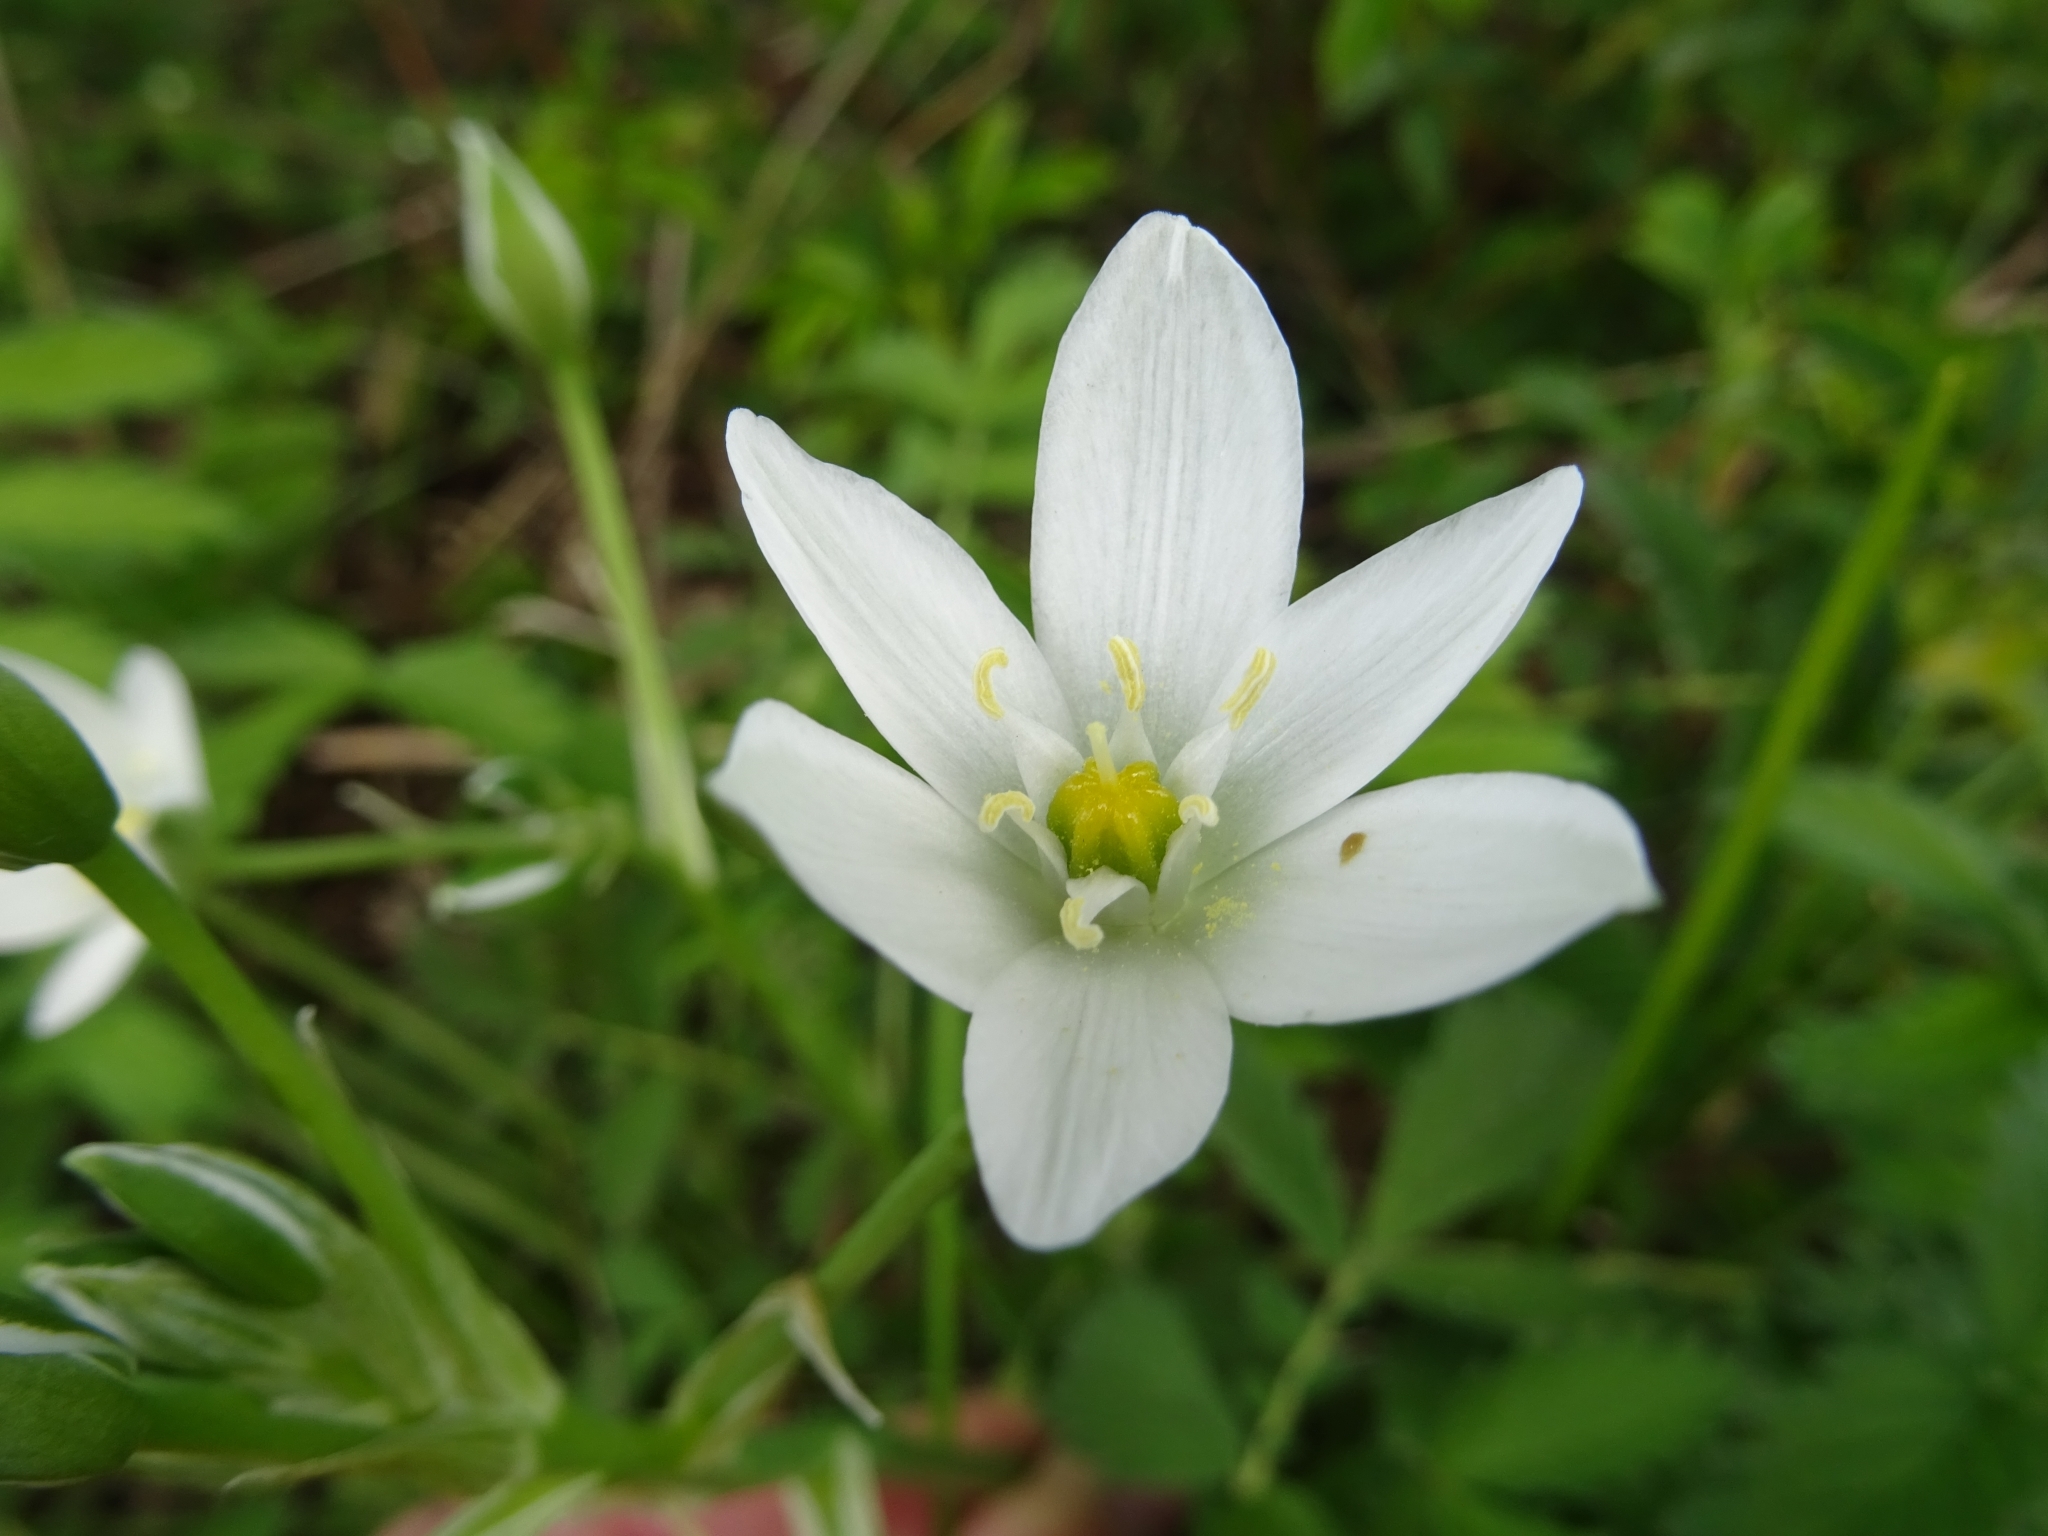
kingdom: Plantae
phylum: Tracheophyta
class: Liliopsida
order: Asparagales
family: Asparagaceae
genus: Ornithogalum
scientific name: Ornithogalum umbellatum
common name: Garden star-of-bethlehem
